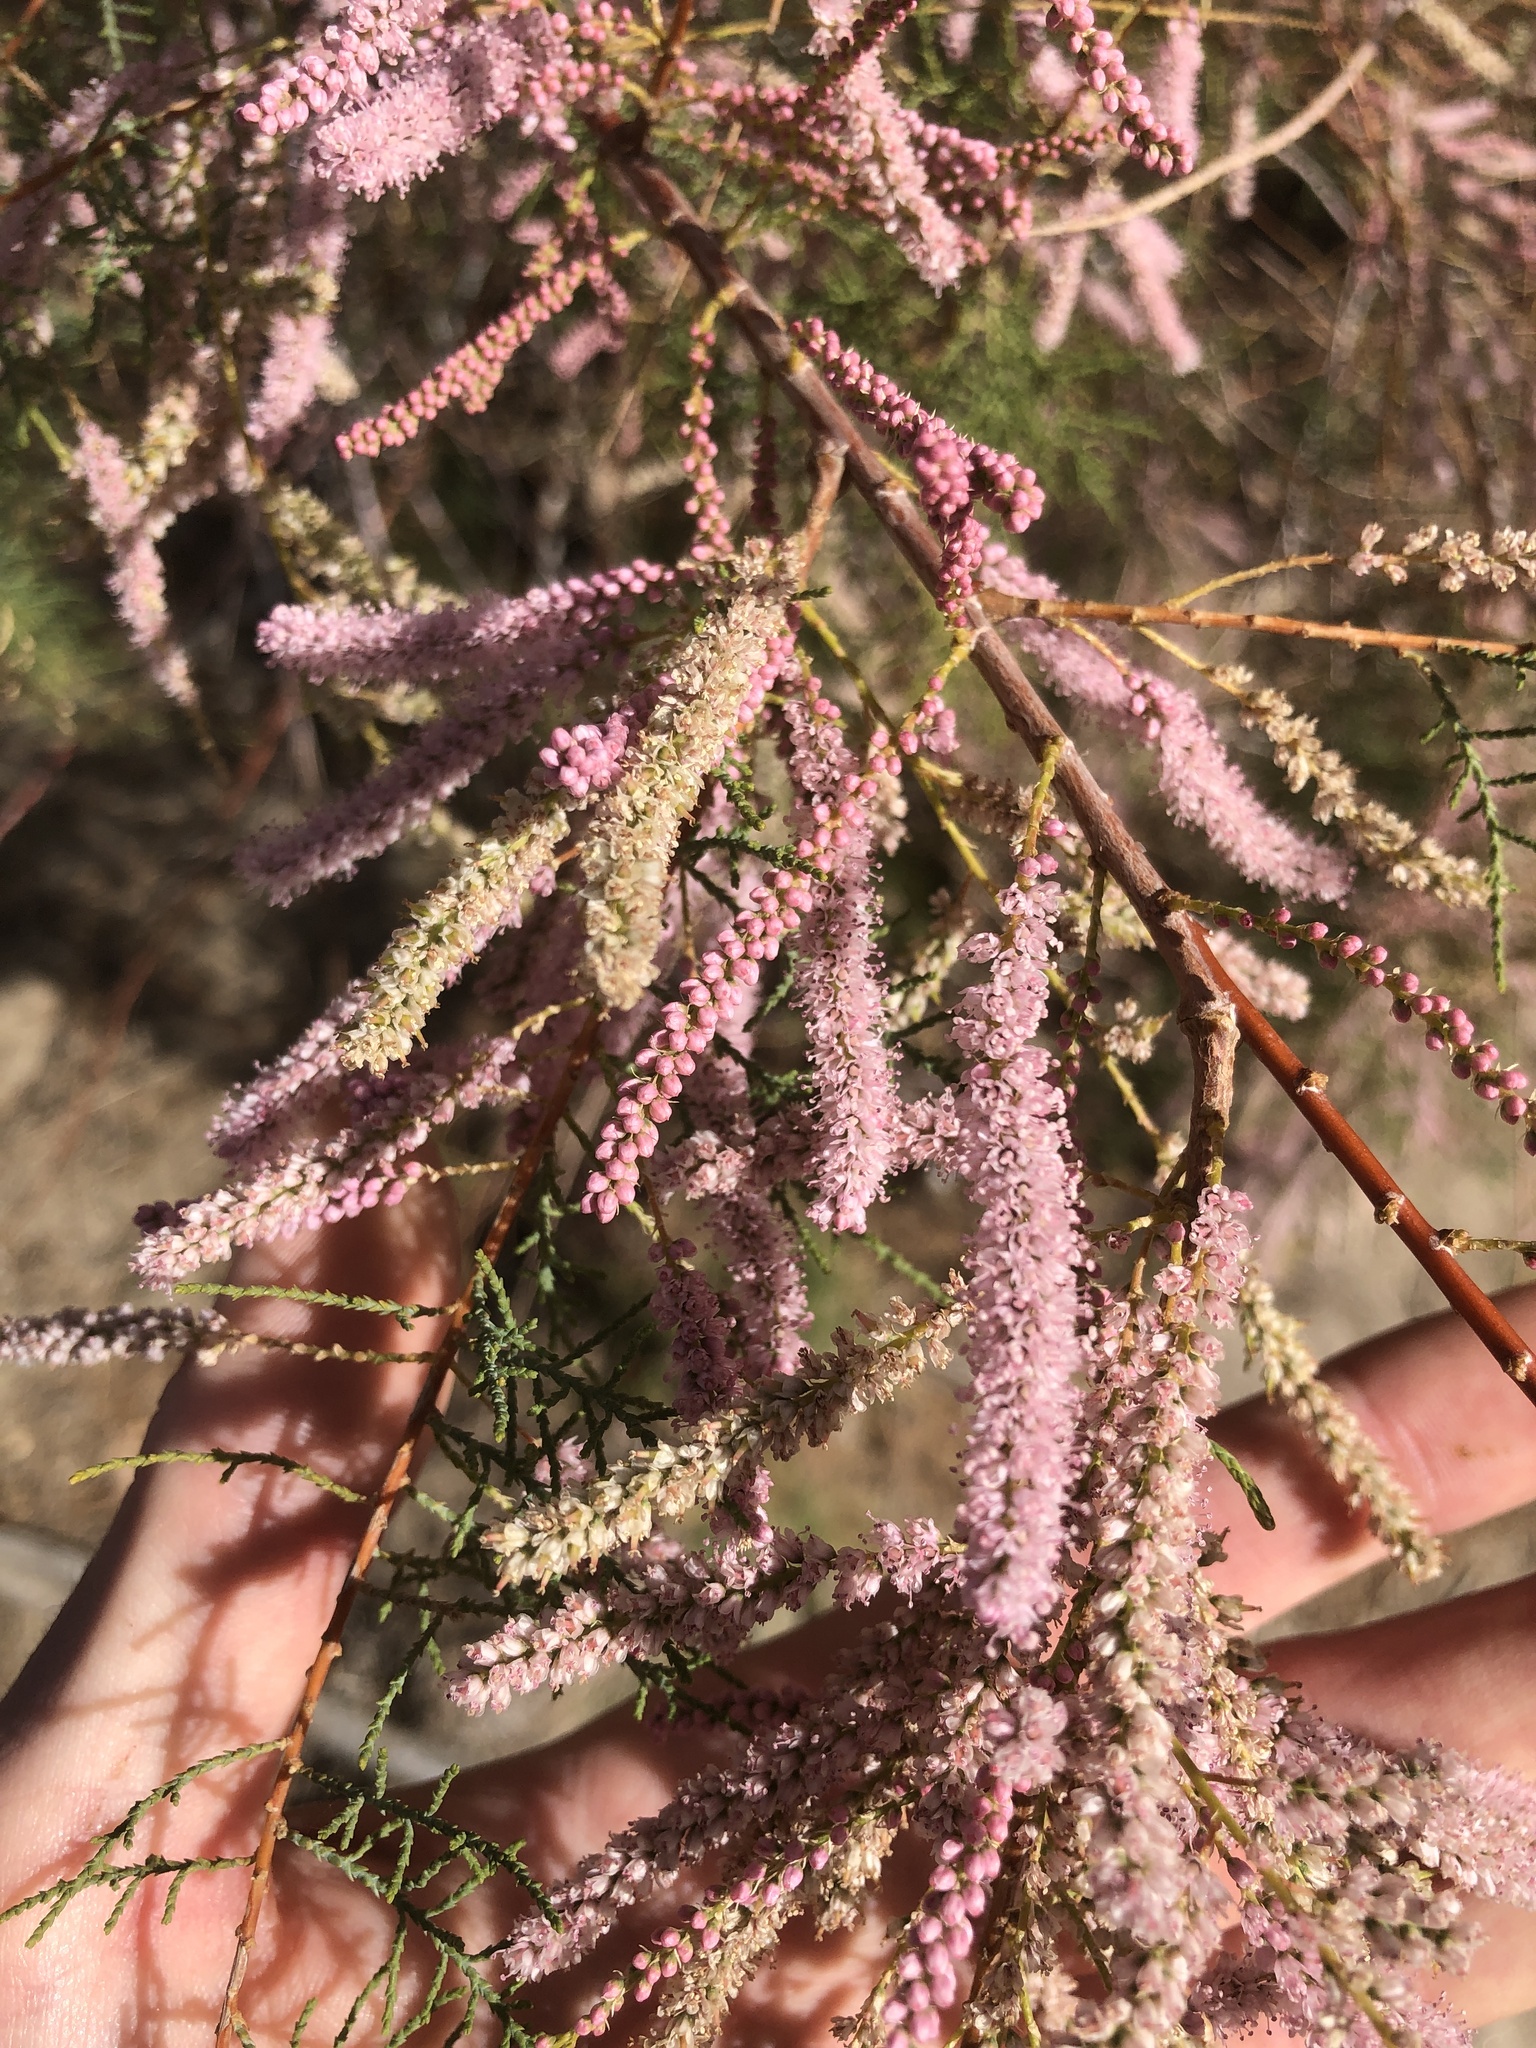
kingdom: Plantae
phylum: Tracheophyta
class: Magnoliopsida
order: Caryophyllales
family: Tamaricaceae
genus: Tamarix
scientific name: Tamarix ramosissima
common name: Pink tamarisk
